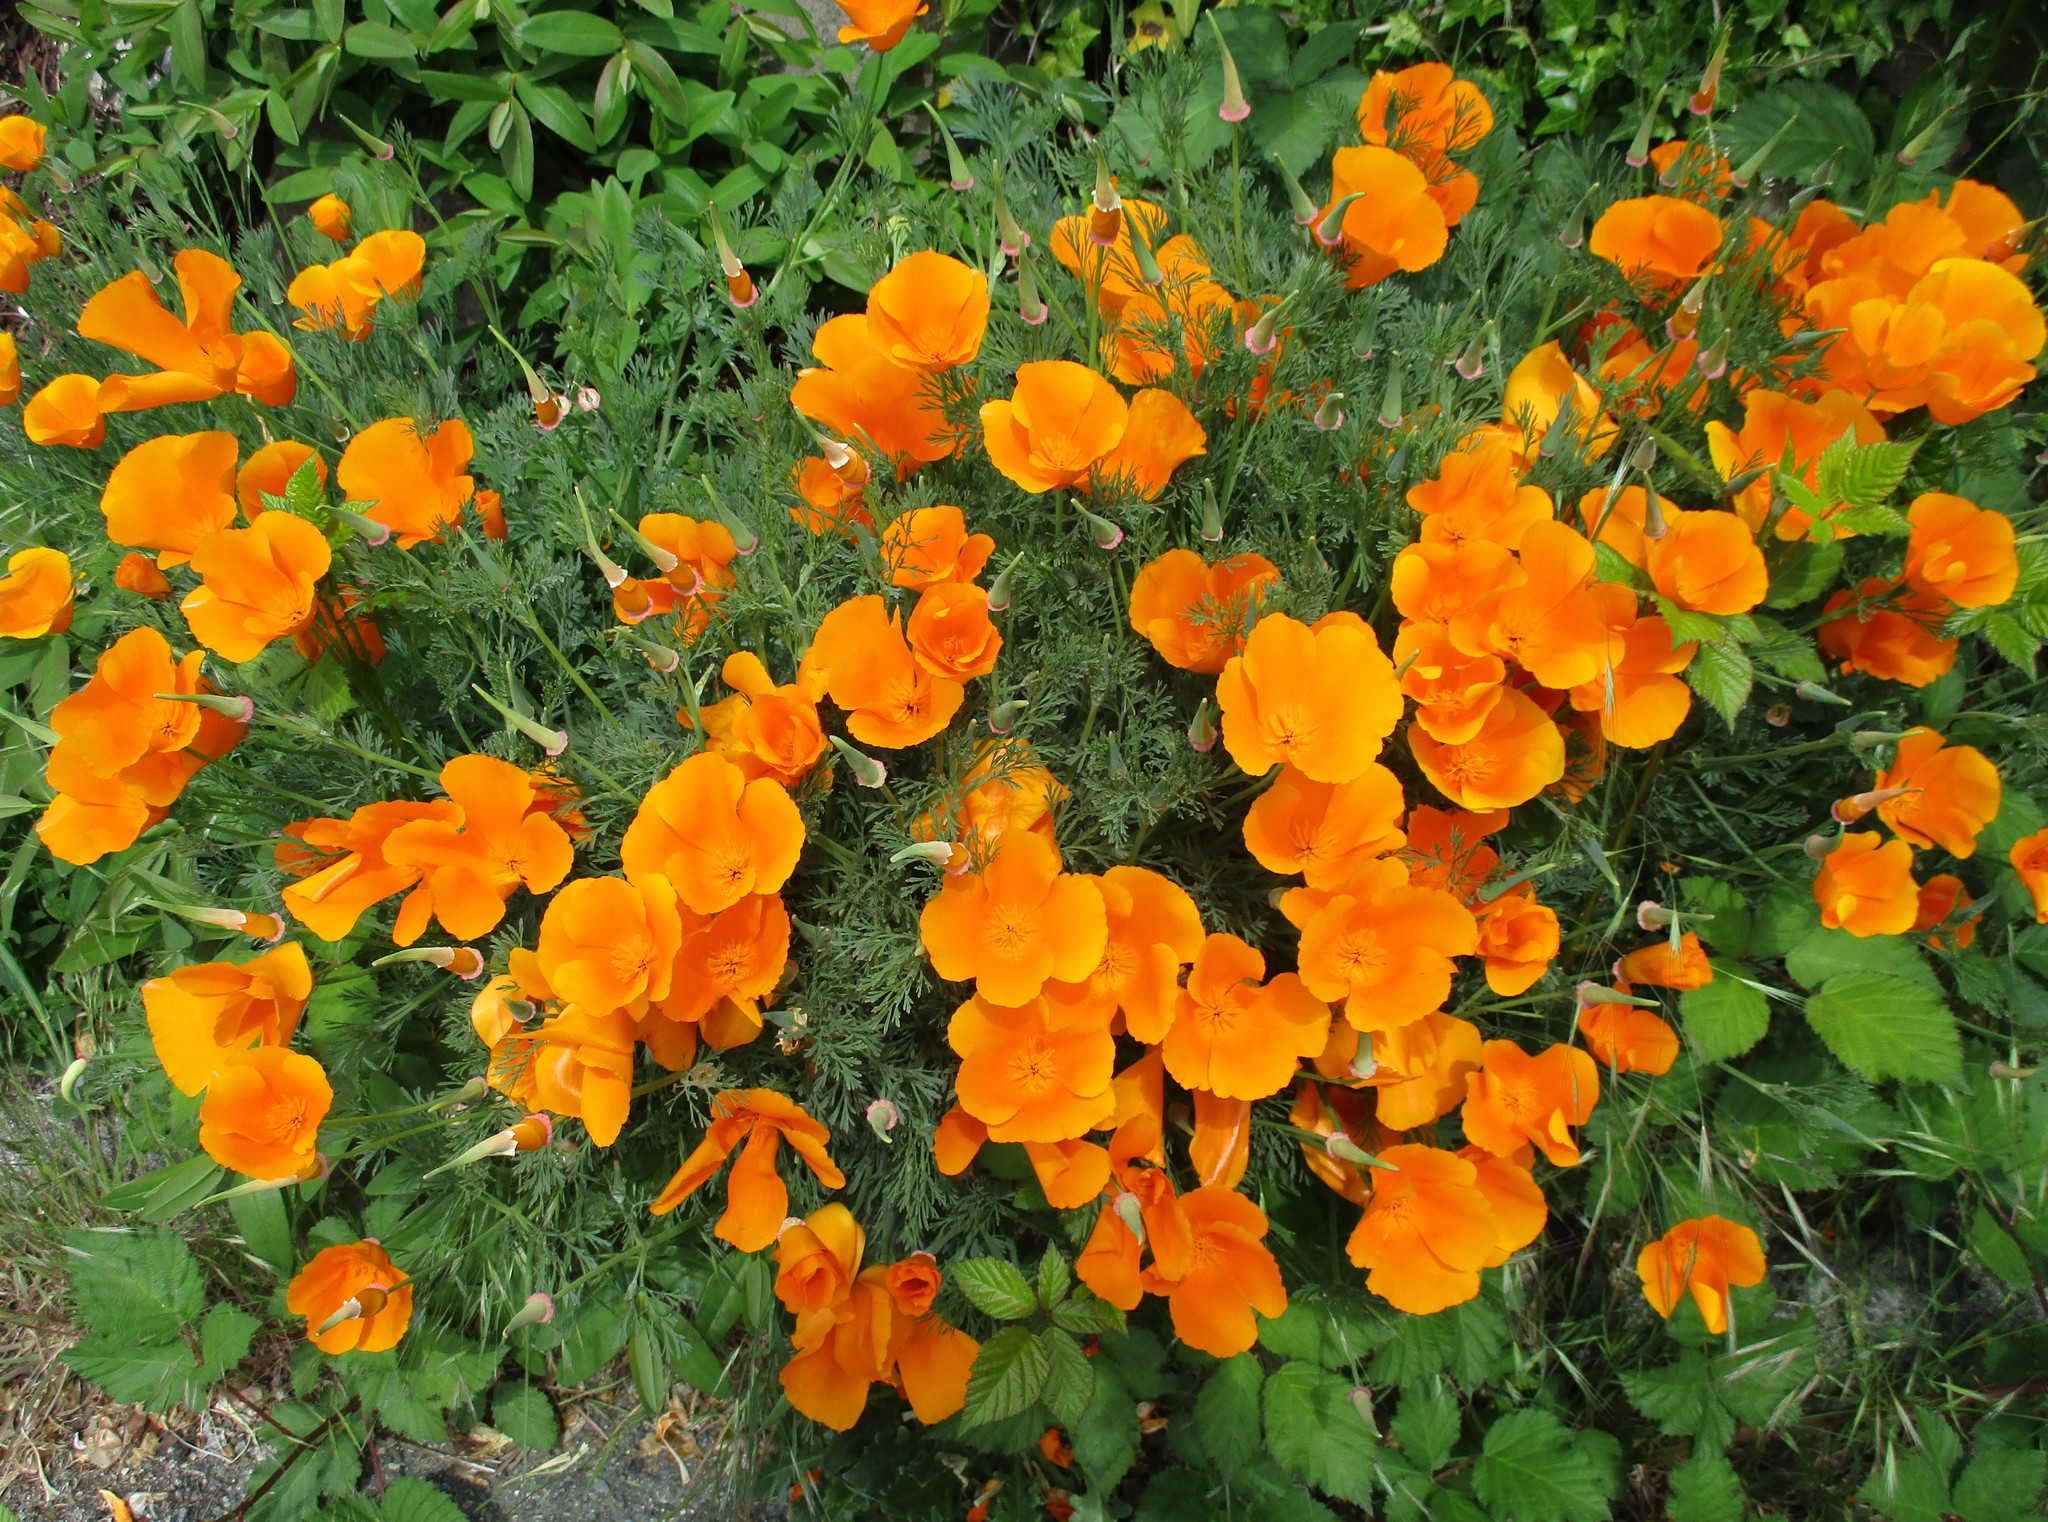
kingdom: Plantae
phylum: Tracheophyta
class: Magnoliopsida
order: Ranunculales
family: Papaveraceae
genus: Eschscholzia
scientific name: Eschscholzia californica
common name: California poppy
